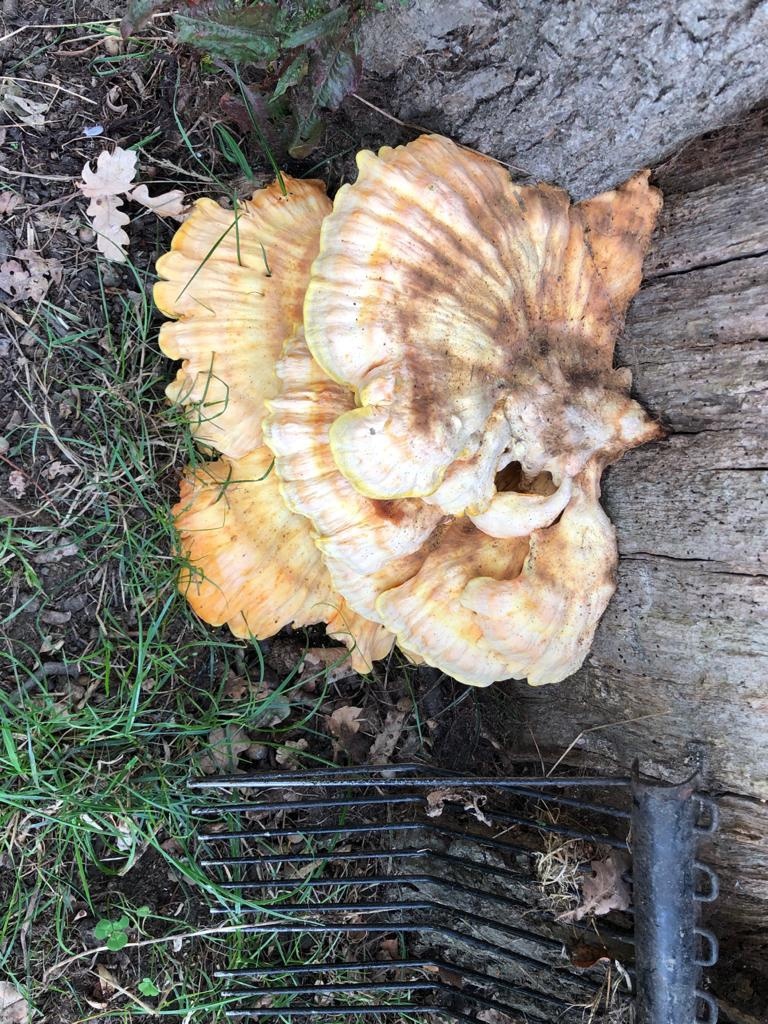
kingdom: Fungi
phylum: Basidiomycota
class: Agaricomycetes
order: Polyporales
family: Laetiporaceae
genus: Laetiporus
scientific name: Laetiporus sulphureus
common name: Chicken of the woods
